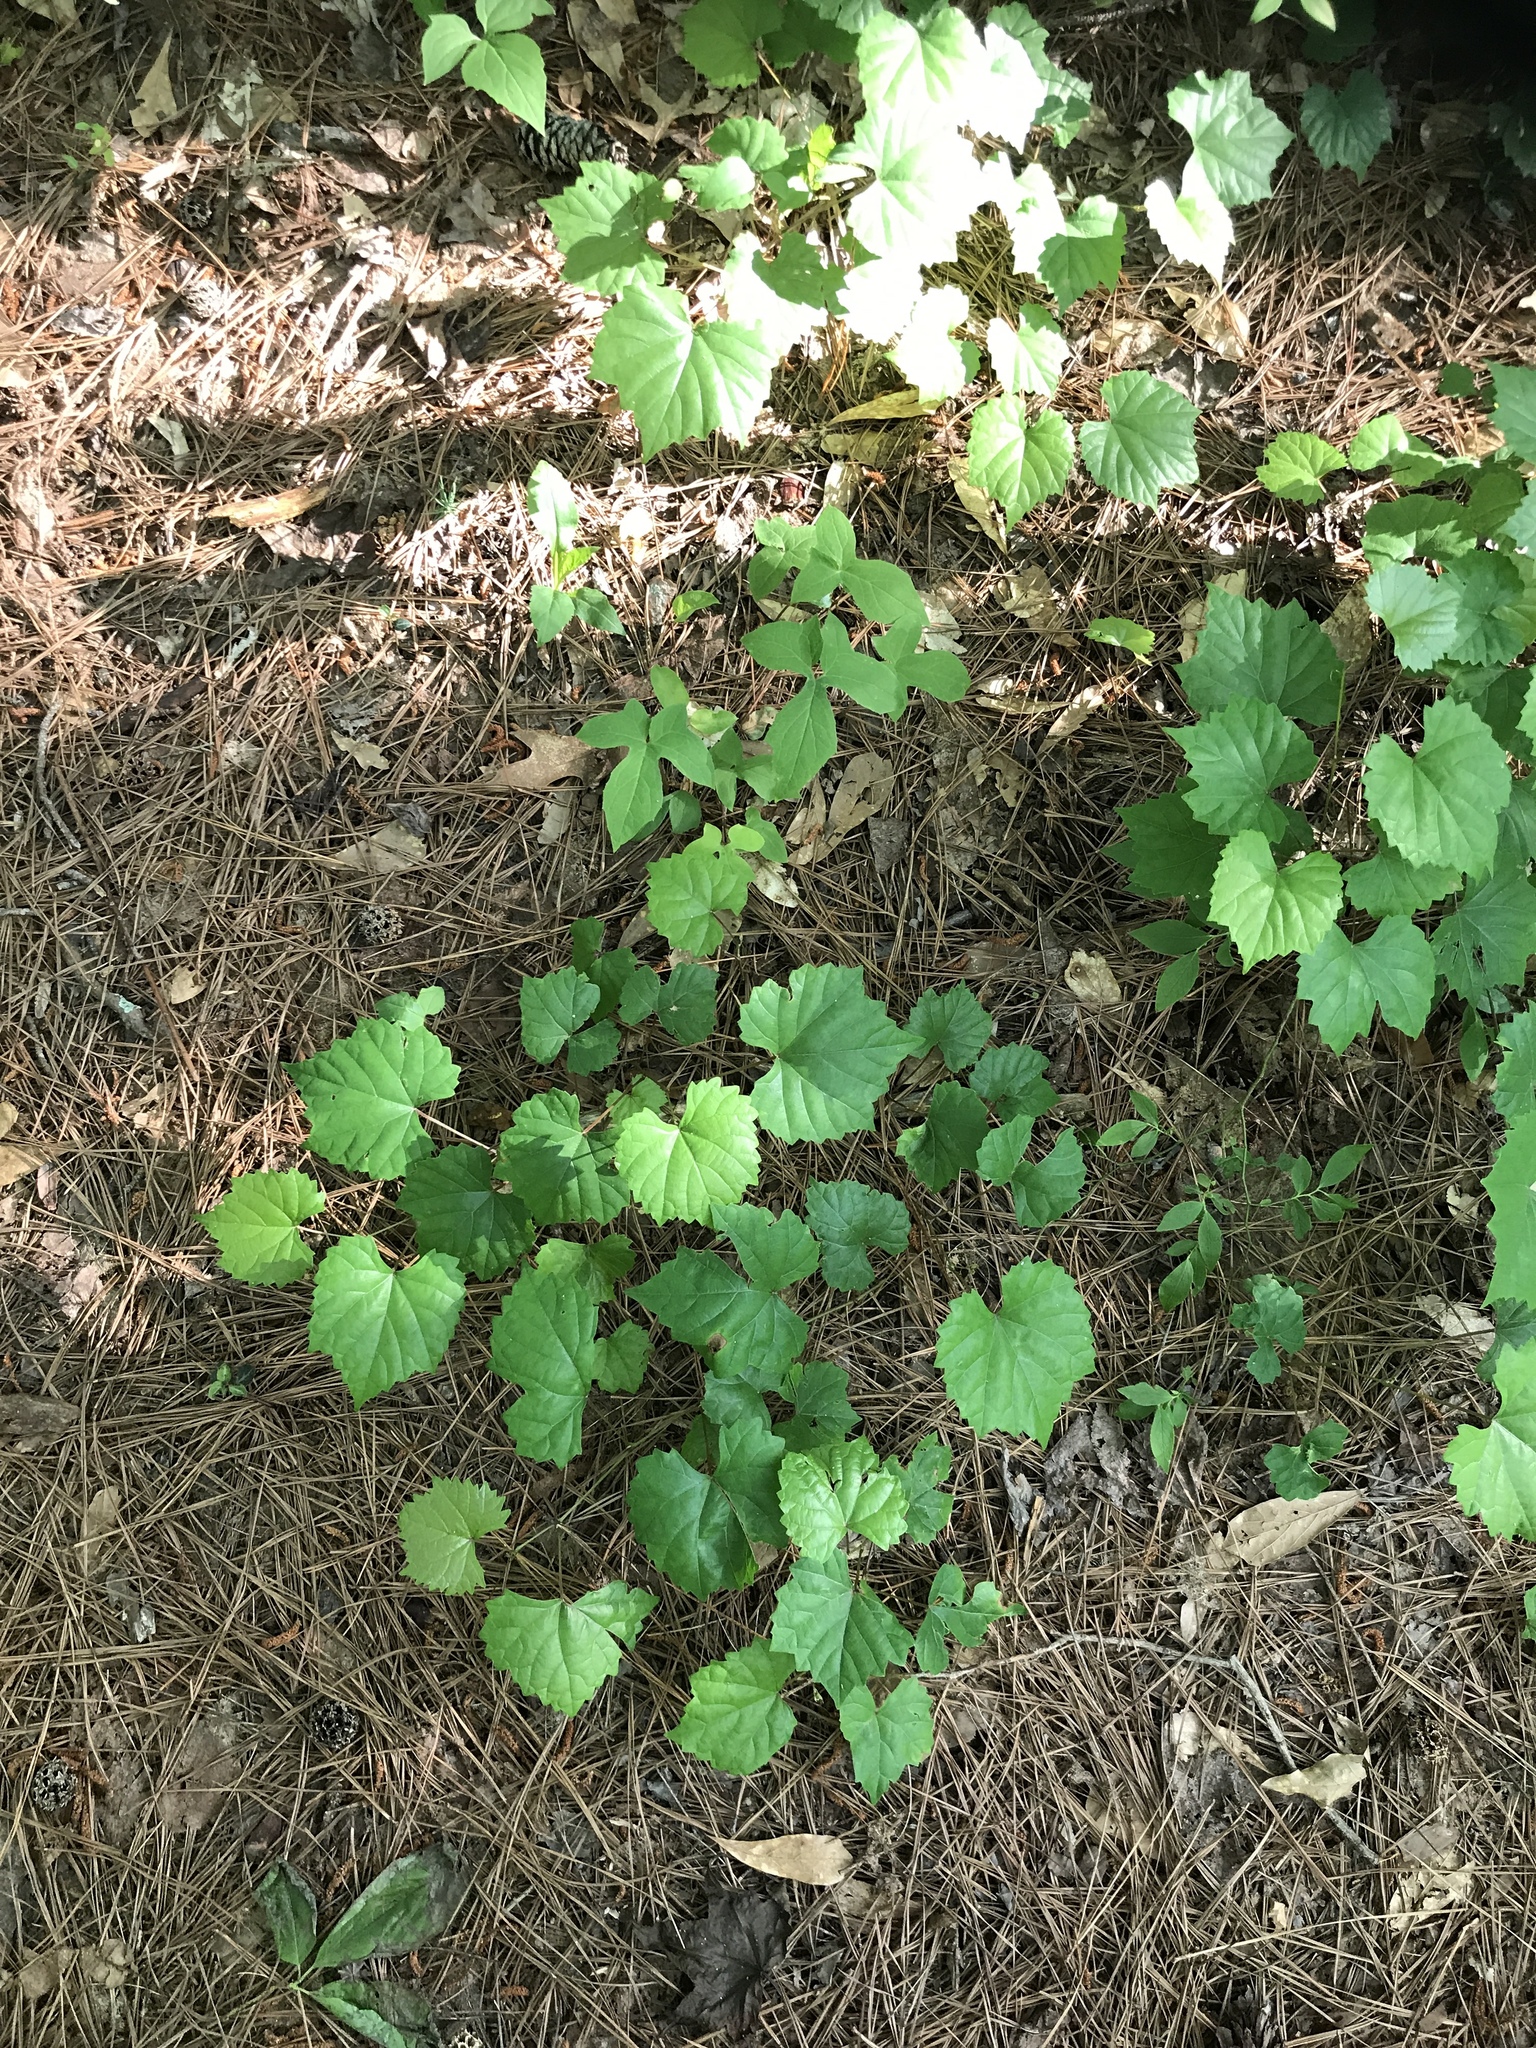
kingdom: Plantae
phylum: Tracheophyta
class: Magnoliopsida
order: Vitales
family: Vitaceae
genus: Vitis
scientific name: Vitis rotundifolia
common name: Muscadine grape
